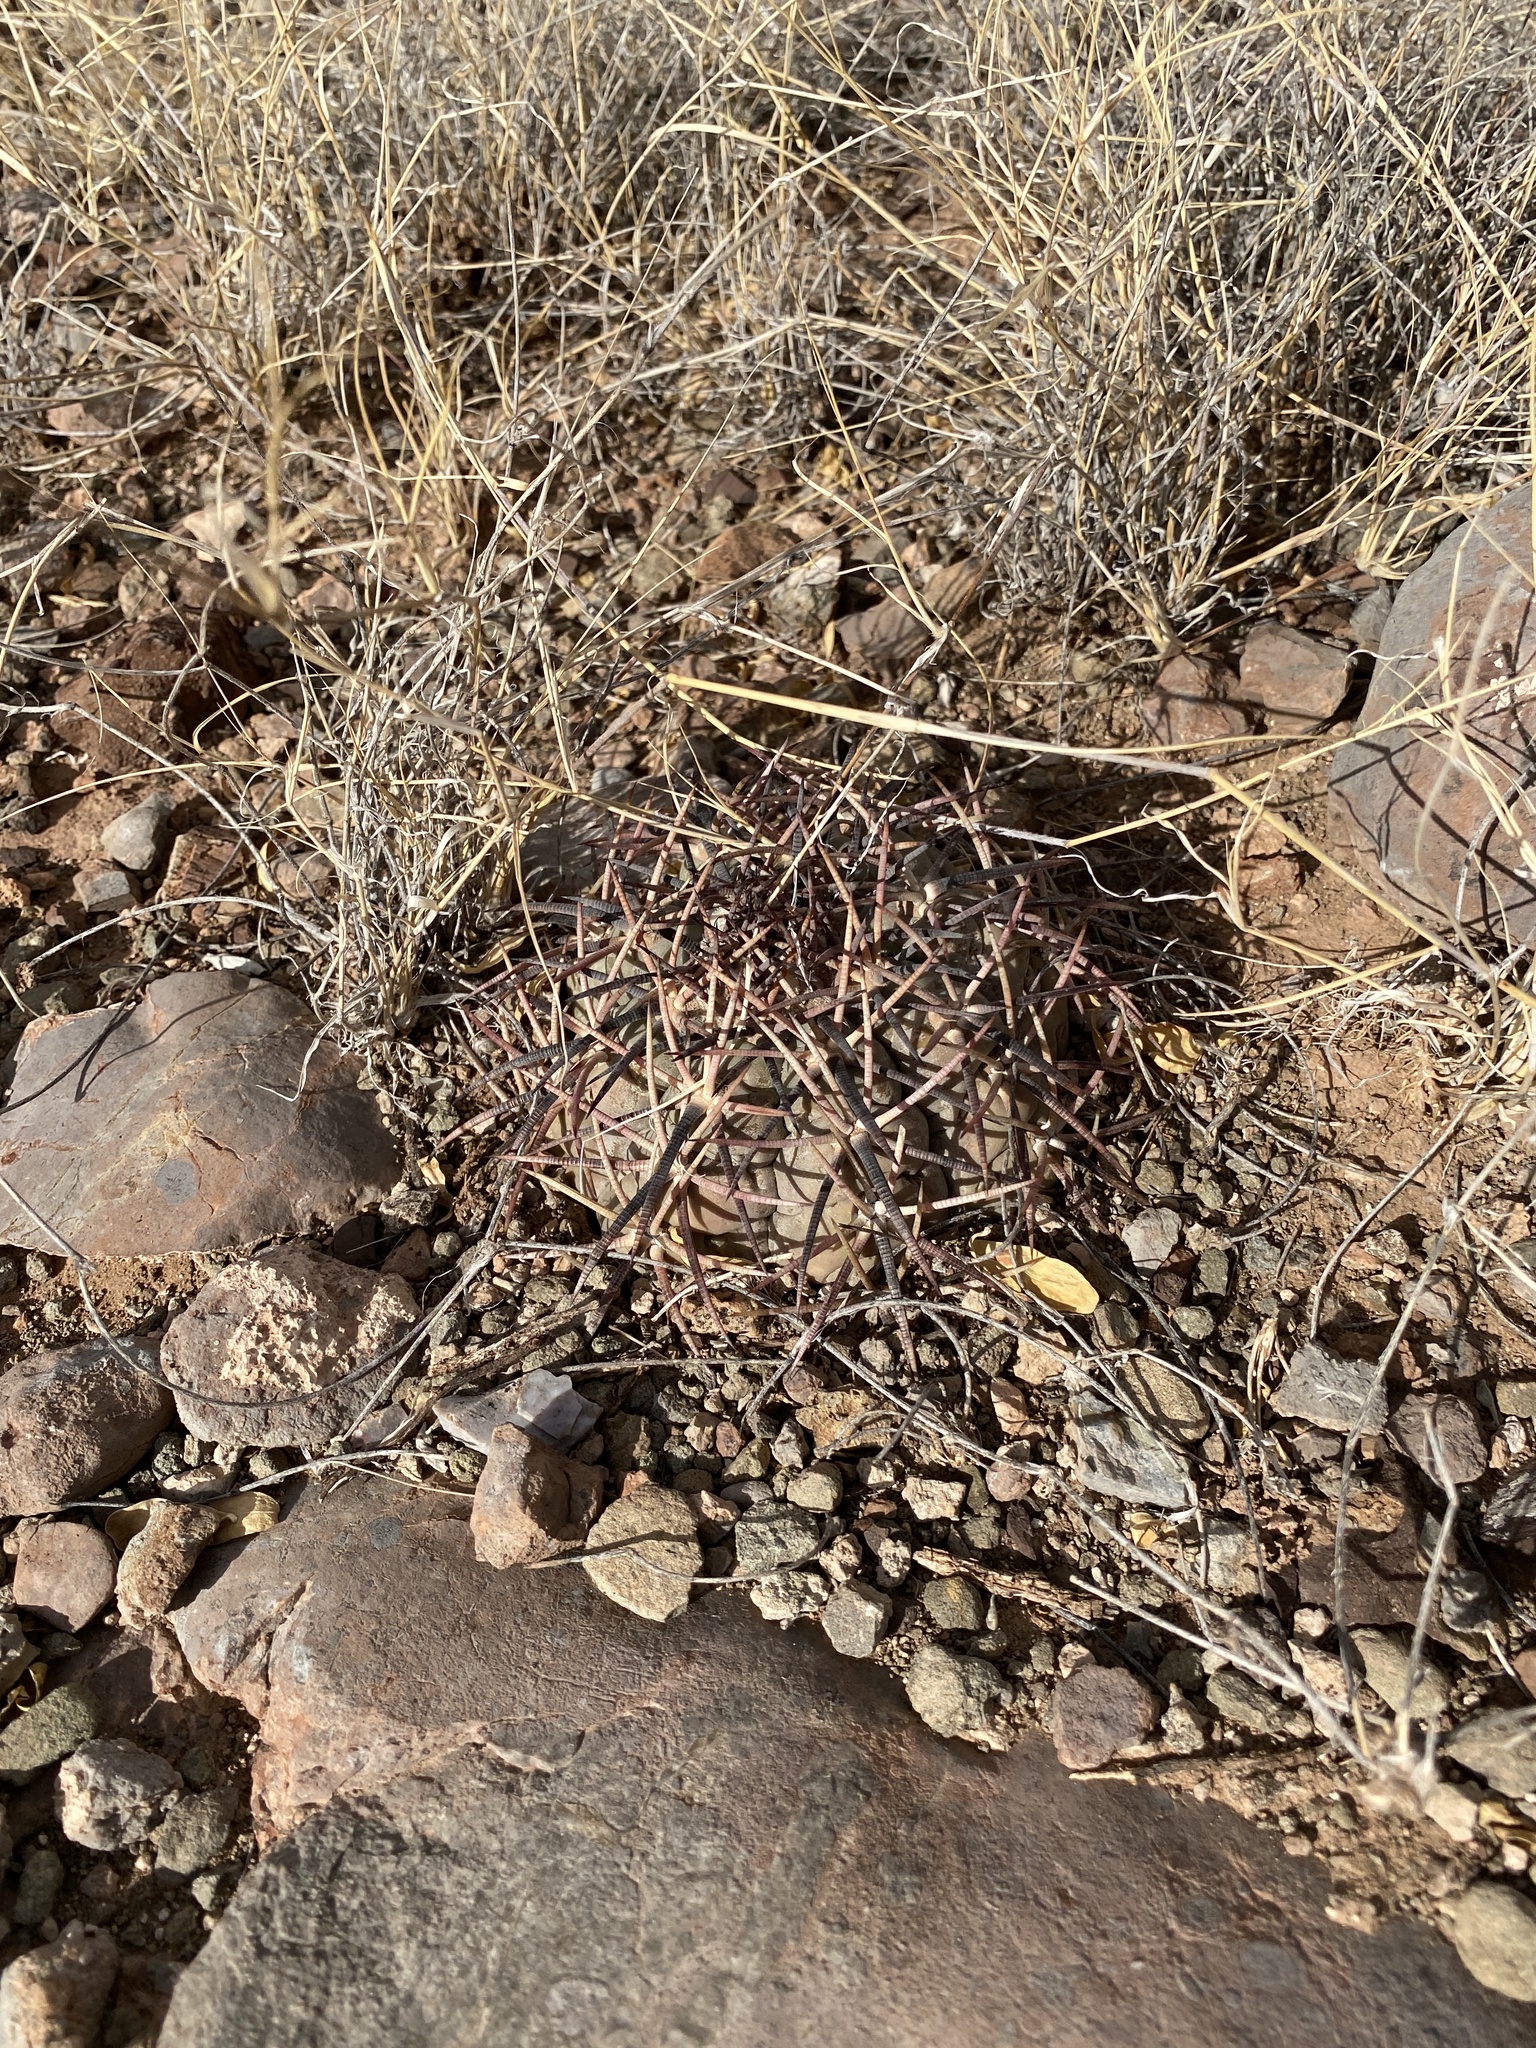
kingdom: Plantae
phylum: Tracheophyta
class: Magnoliopsida
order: Caryophyllales
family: Cactaceae
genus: Echinocactus
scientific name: Echinocactus horizonthalonius
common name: Devilshead
